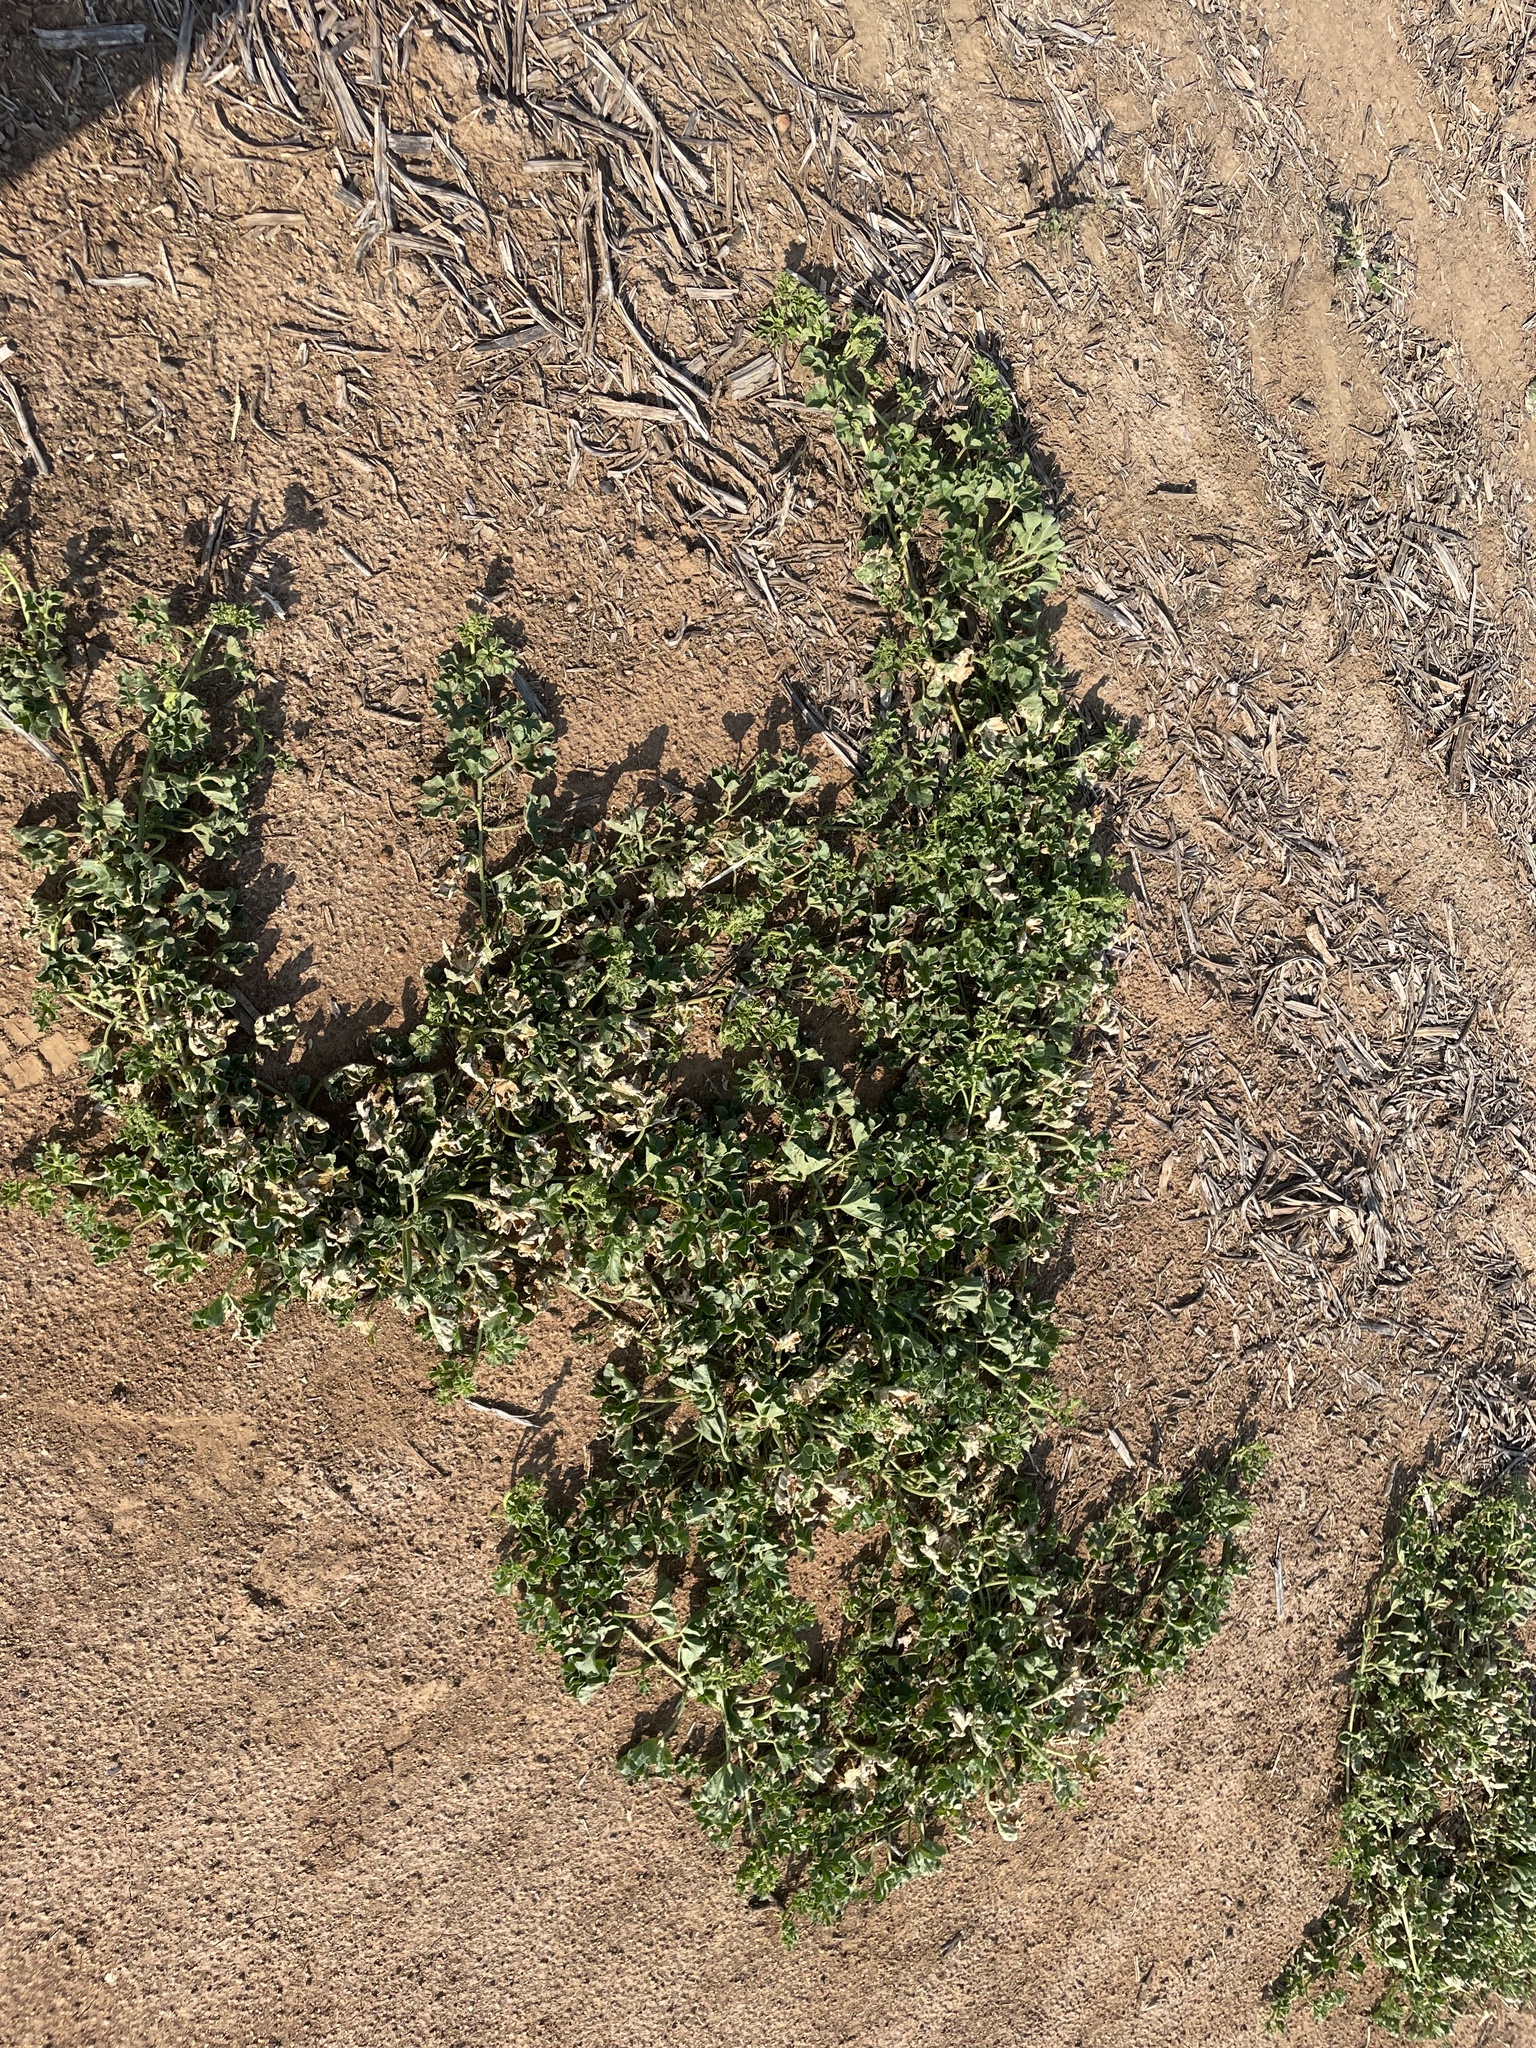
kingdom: Plantae
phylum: Tracheophyta
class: Magnoliopsida
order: Cucurbitales
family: Cucurbitaceae
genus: Cucumis
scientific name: Cucumis myriocarpus
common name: Gooseberry cucumber
